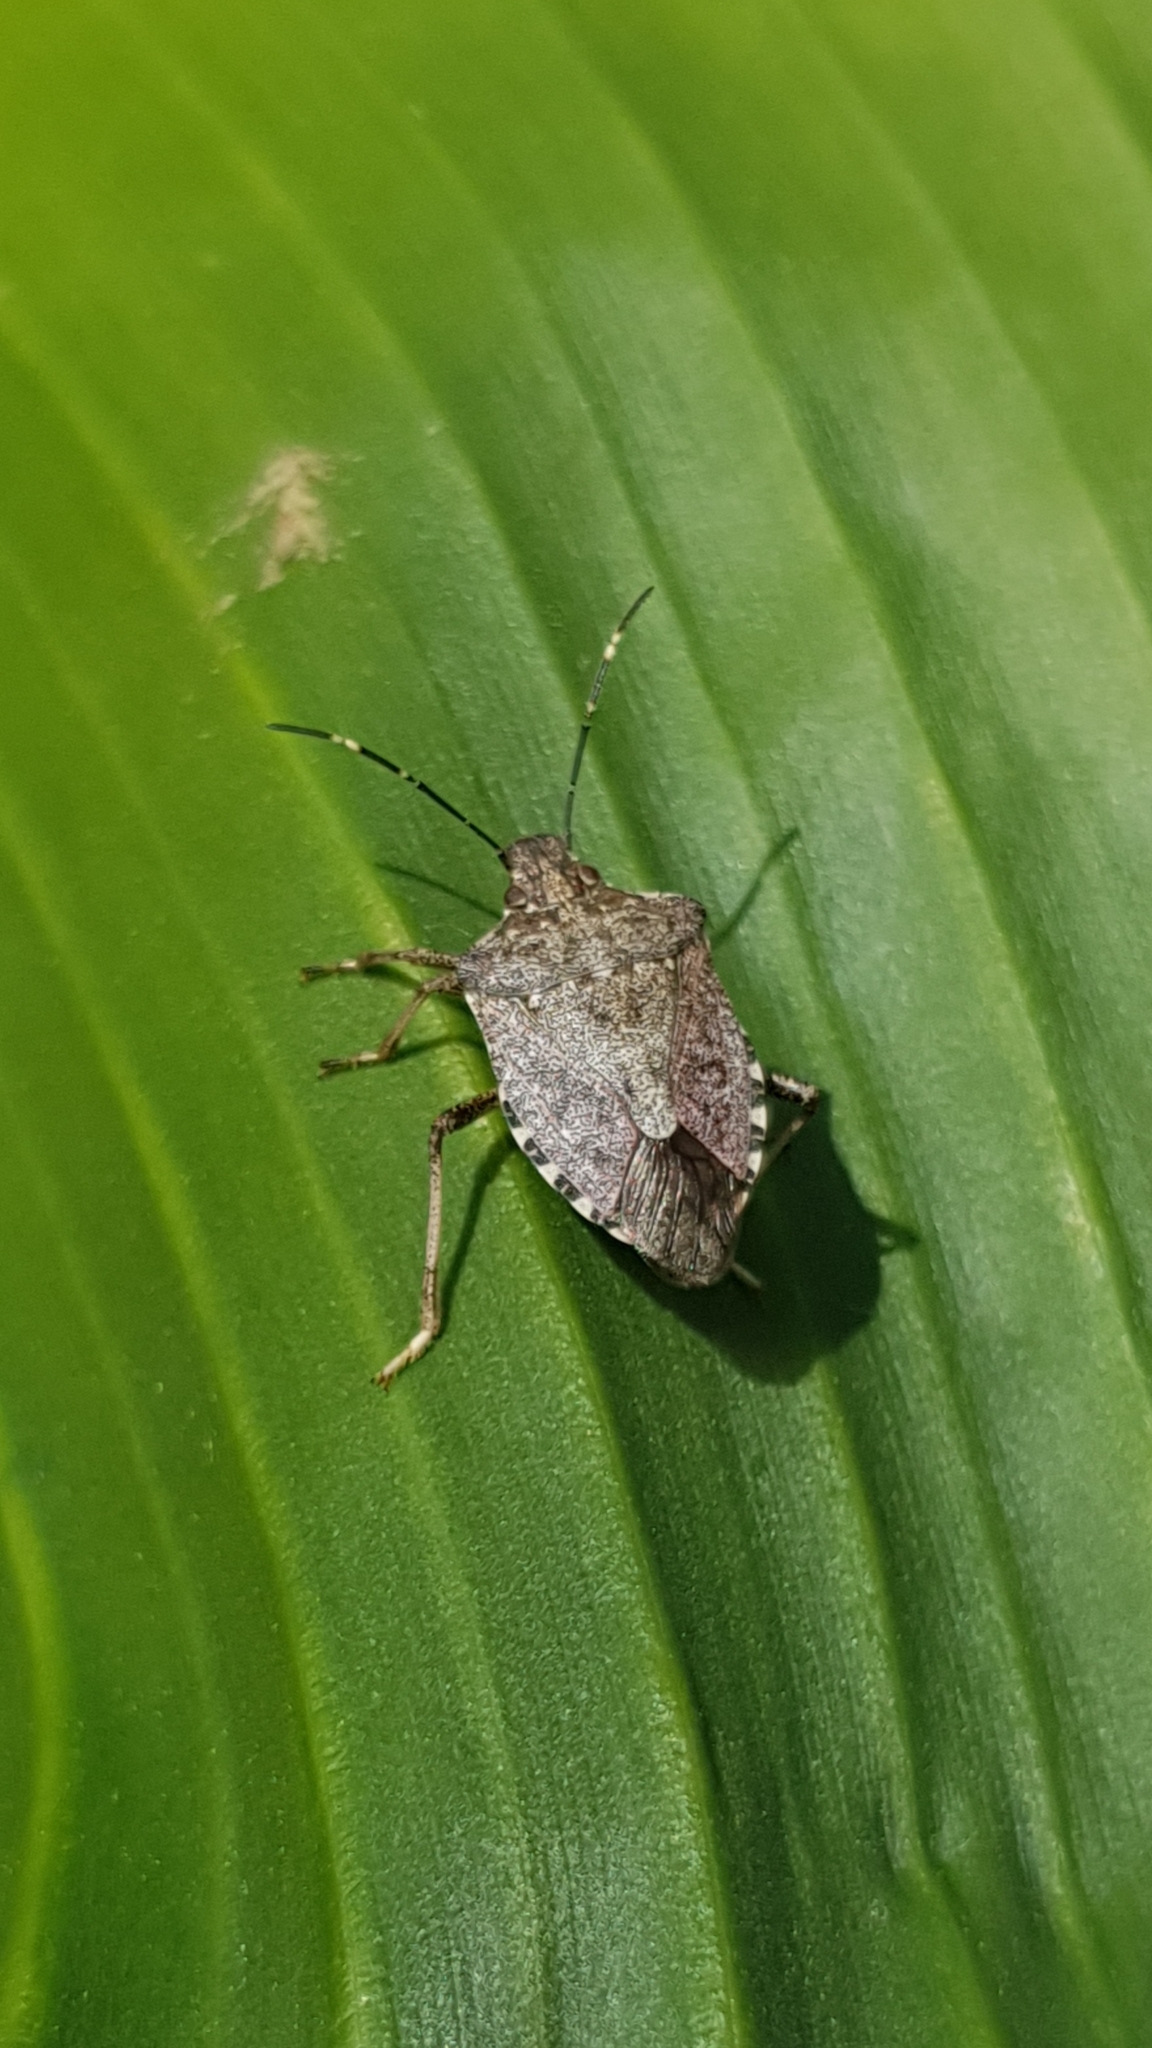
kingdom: Animalia
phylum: Arthropoda
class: Insecta
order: Hemiptera
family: Pentatomidae
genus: Halyomorpha
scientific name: Halyomorpha halys
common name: Brown marmorated stink bug
